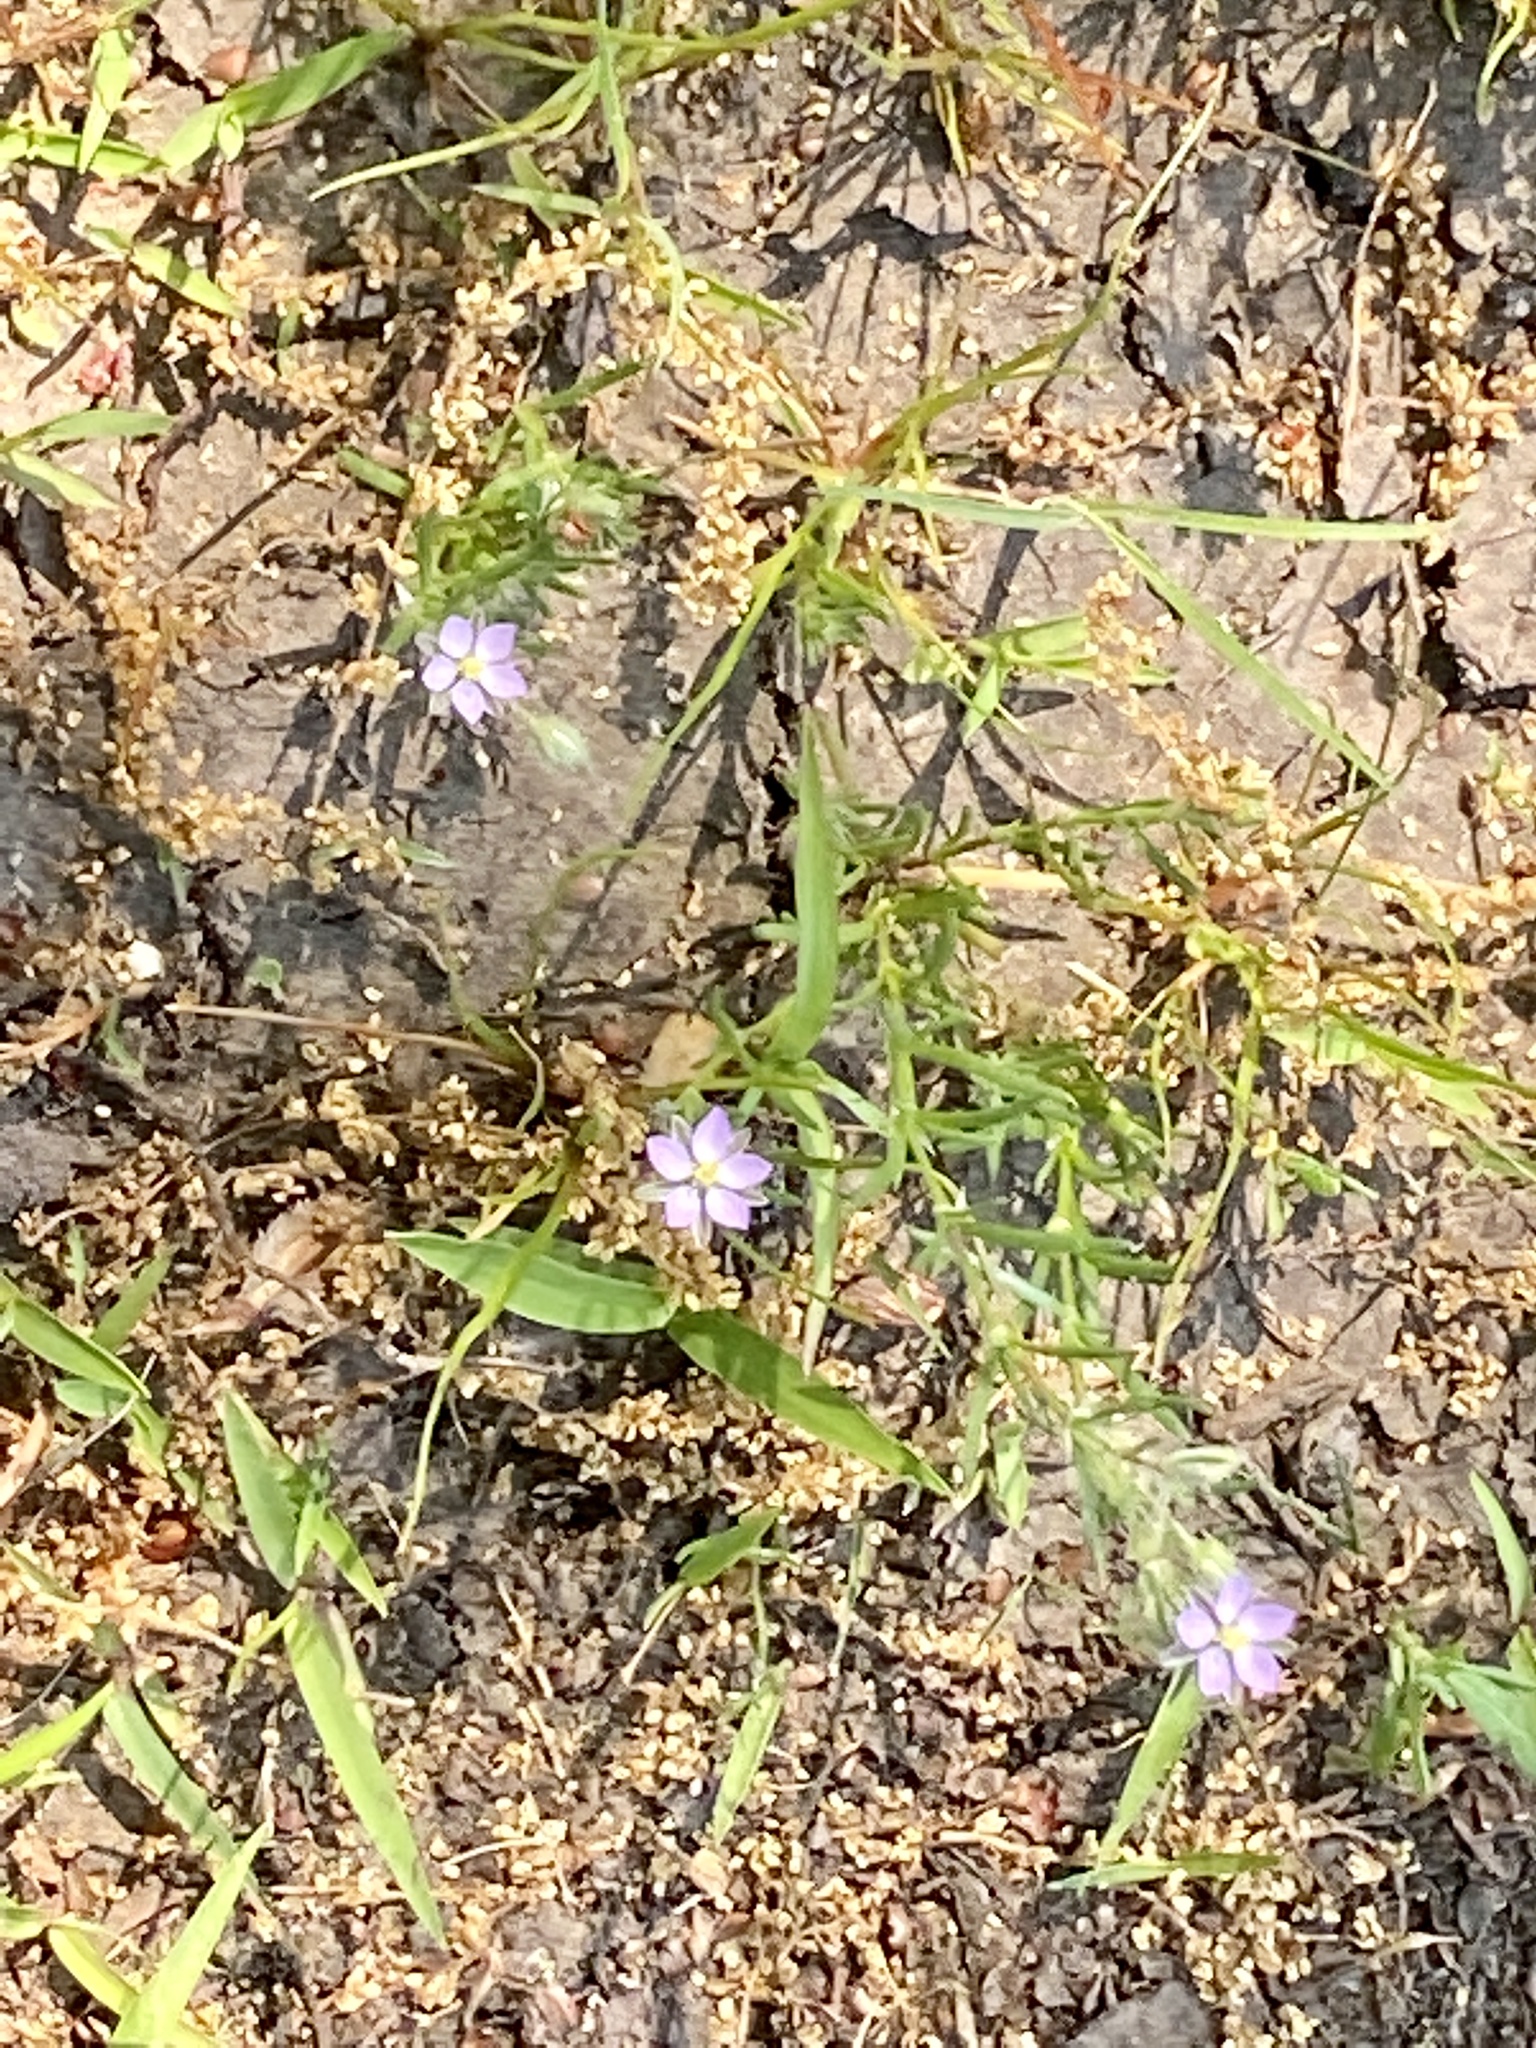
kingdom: Plantae
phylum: Tracheophyta
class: Magnoliopsida
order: Caryophyllales
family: Caryophyllaceae
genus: Spergularia
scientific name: Spergularia rubra
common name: Red sand-spurrey
